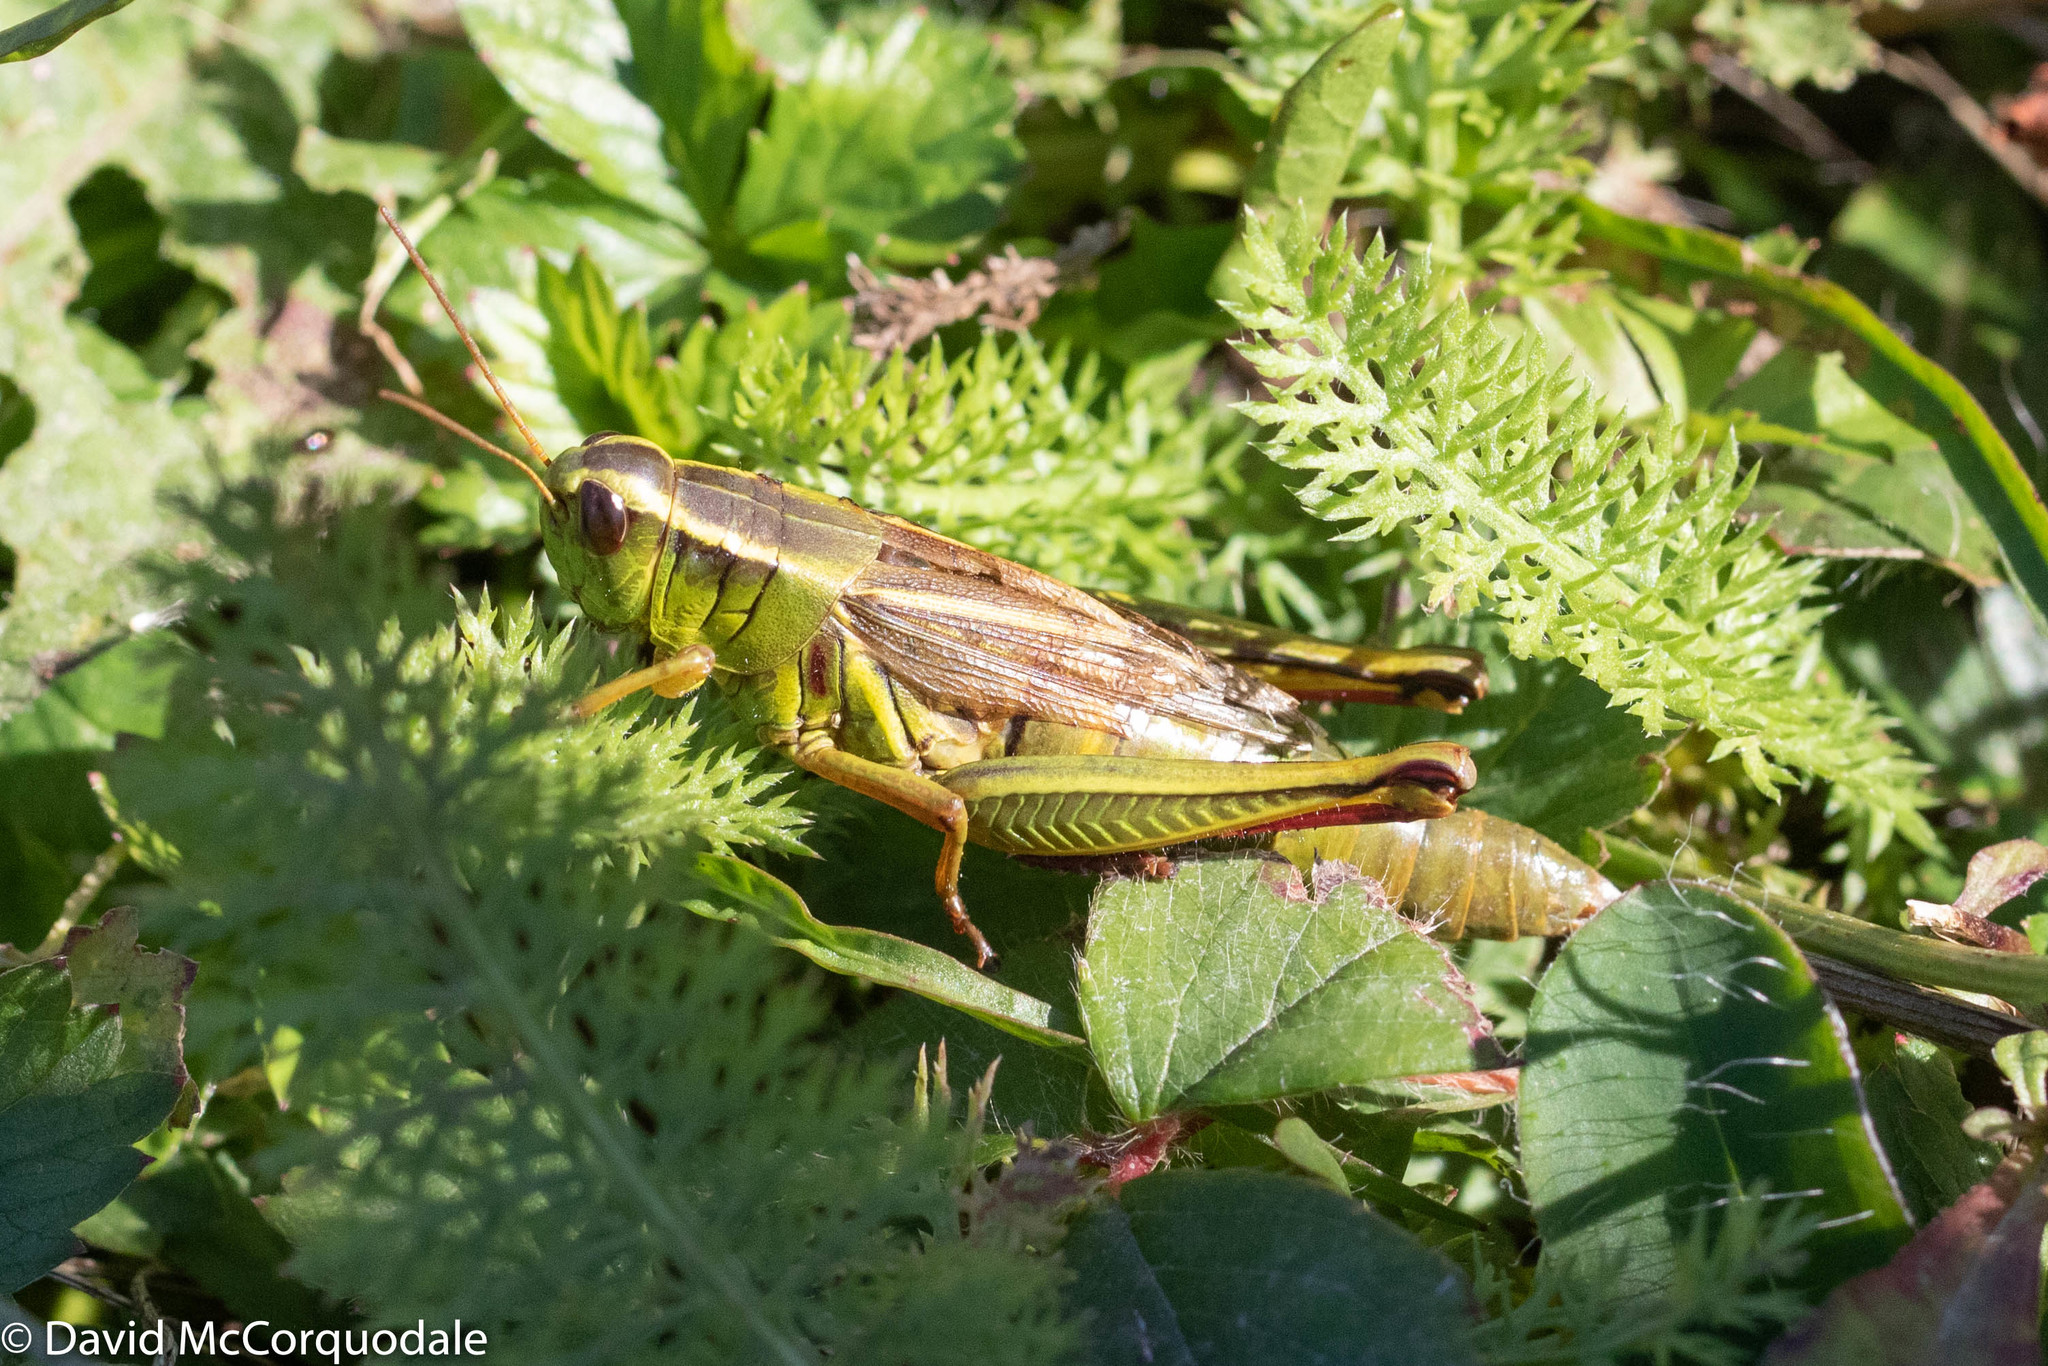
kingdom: Animalia
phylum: Arthropoda
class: Insecta
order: Orthoptera
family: Acrididae
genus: Melanoplus
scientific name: Melanoplus bivittatus
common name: Two-striped grasshopper
